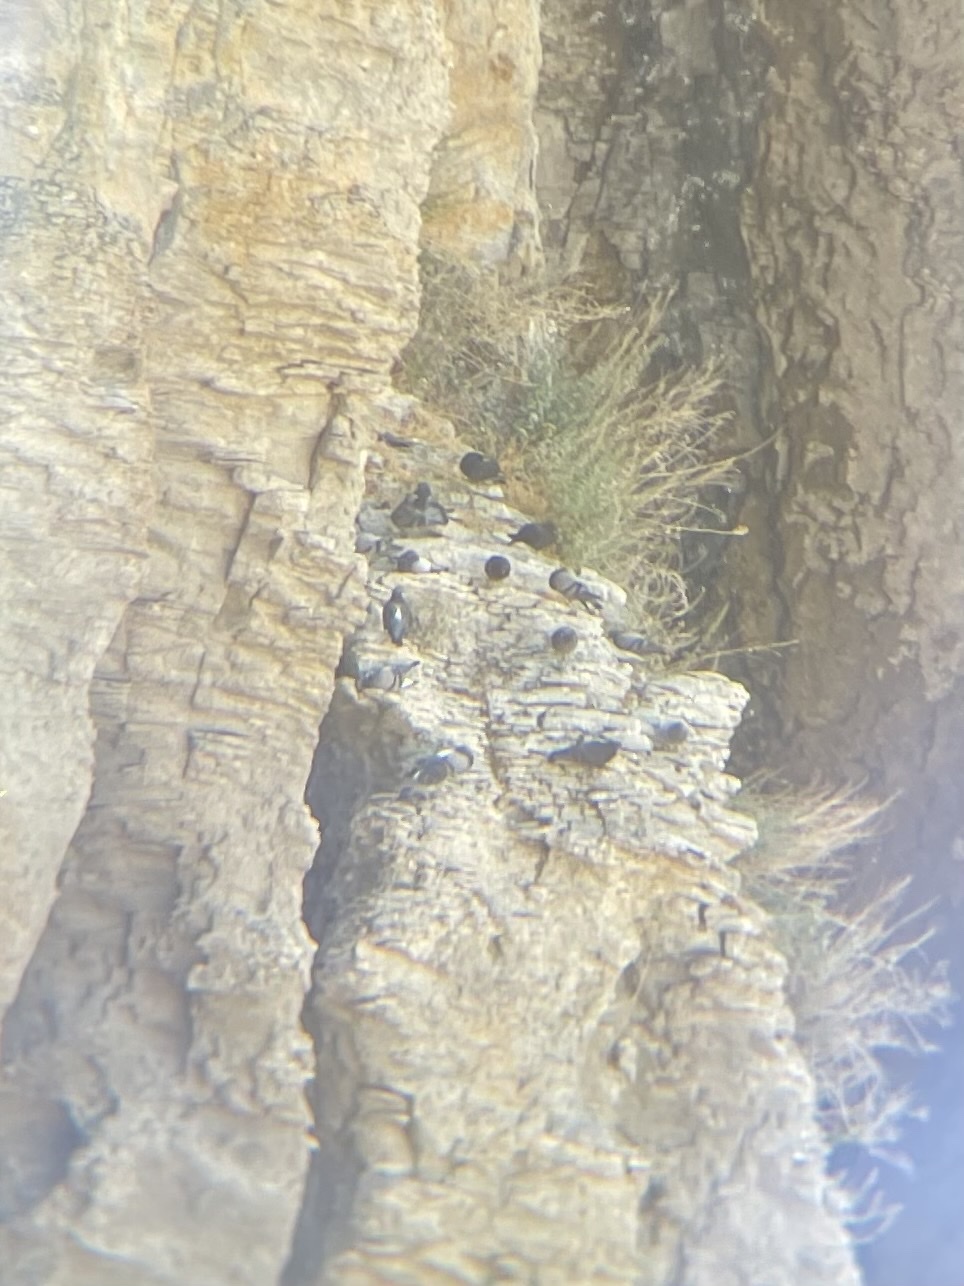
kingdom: Animalia
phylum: Chordata
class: Aves
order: Columbiformes
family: Columbidae
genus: Columba
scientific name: Columba livia
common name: Rock pigeon
